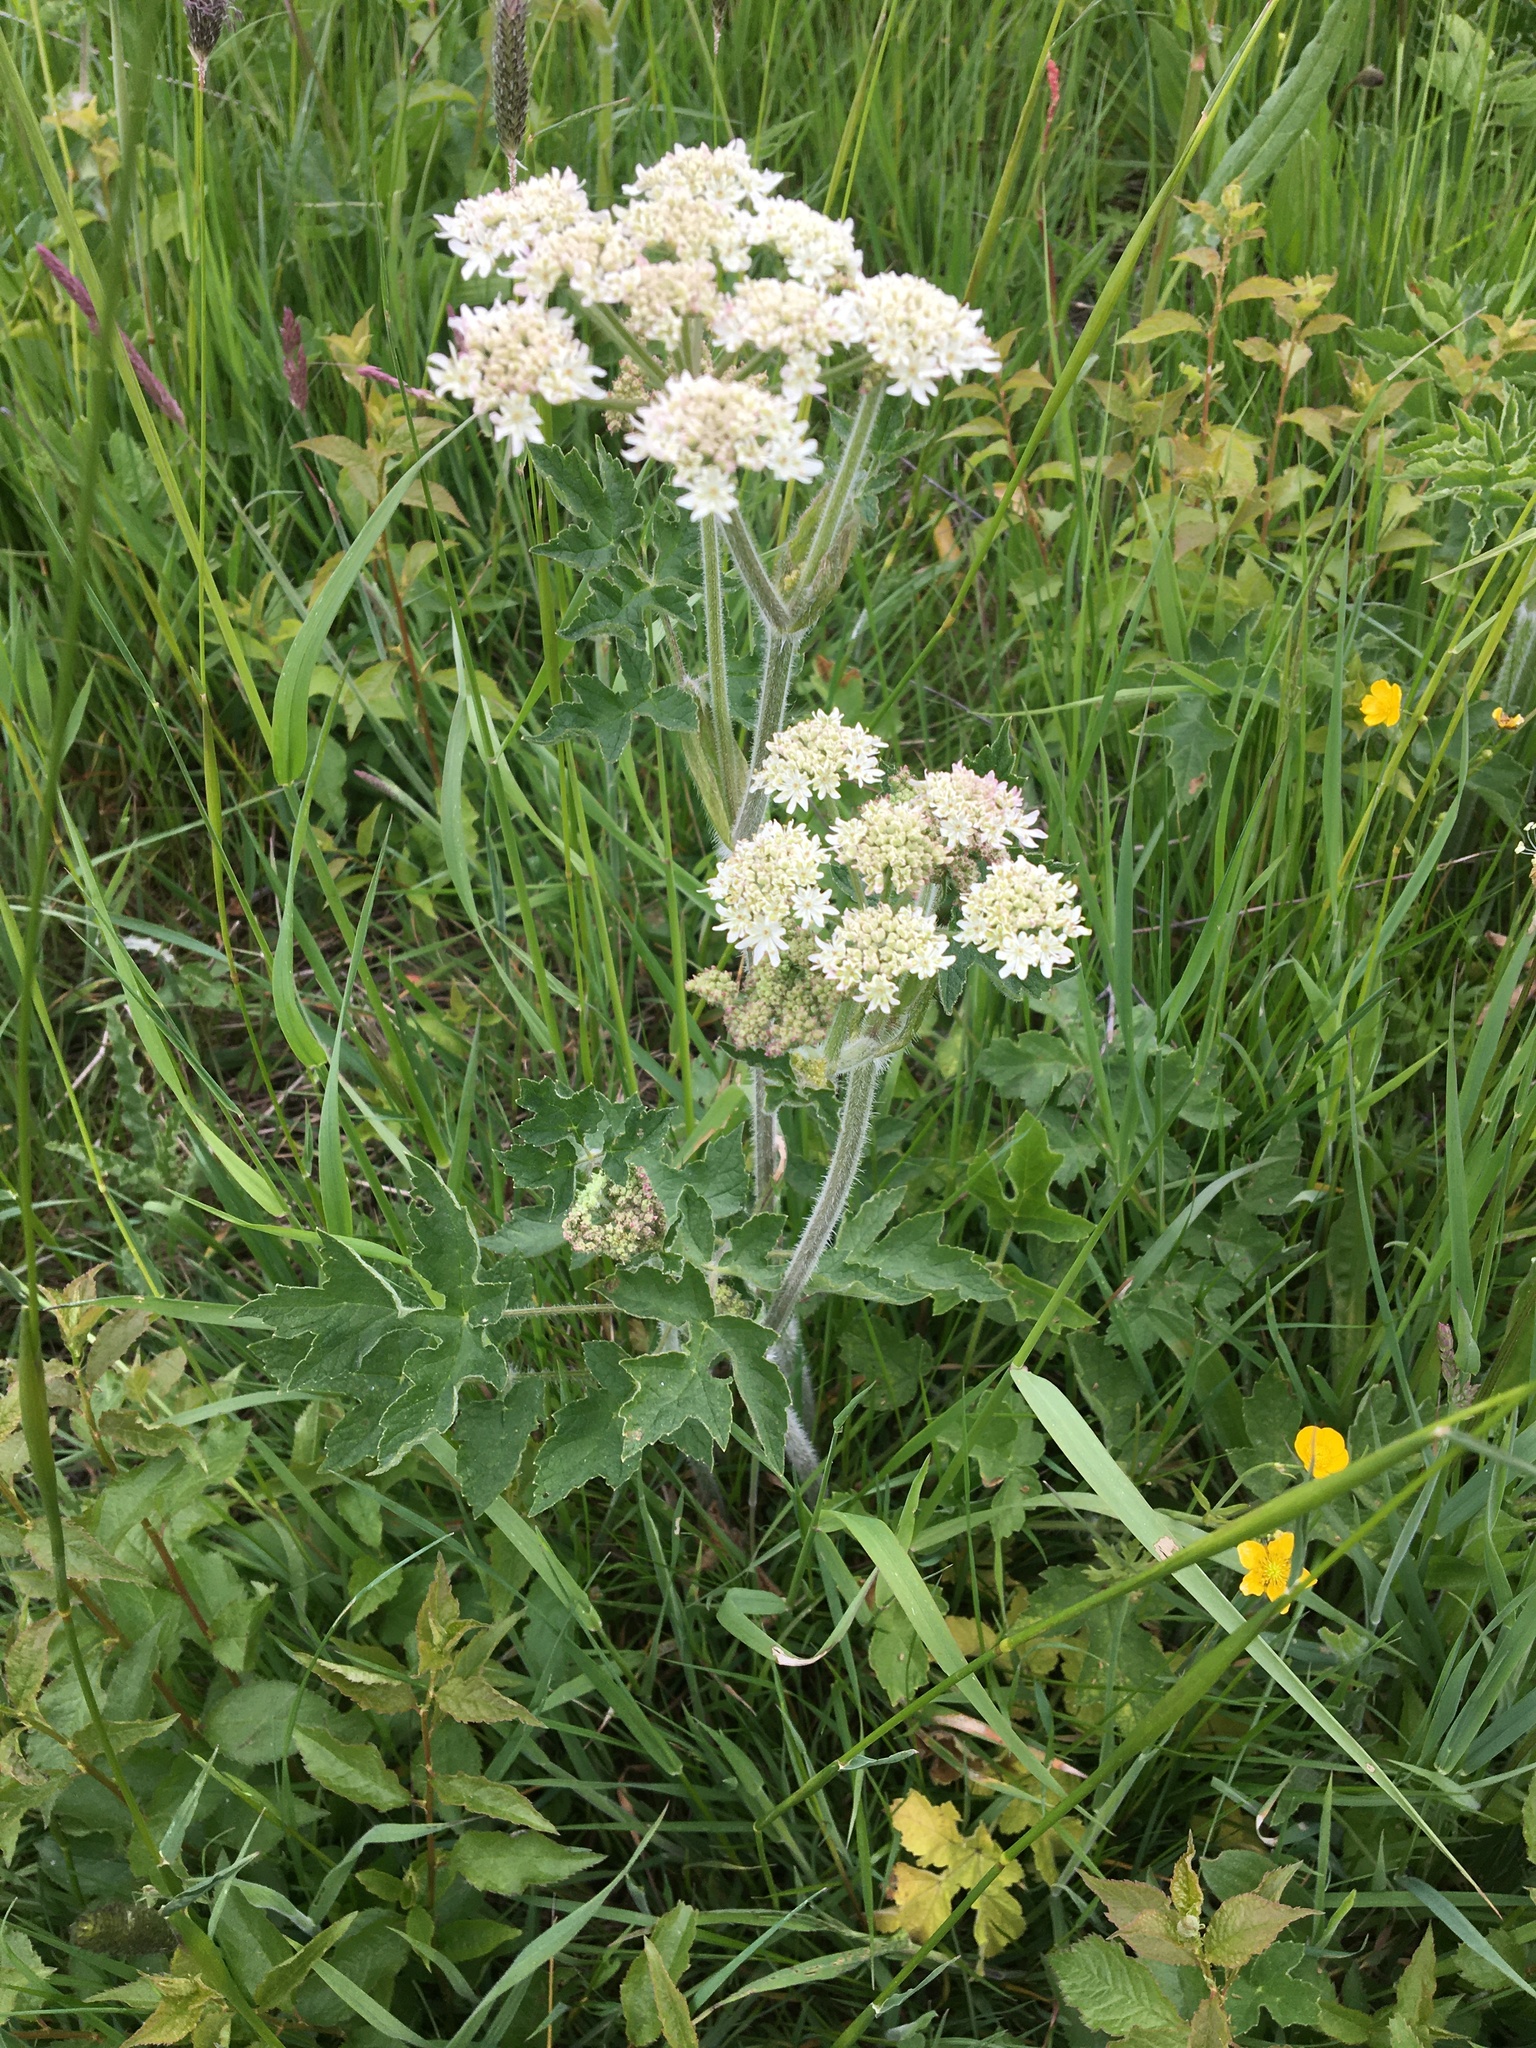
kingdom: Plantae
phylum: Tracheophyta
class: Magnoliopsida
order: Apiales
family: Apiaceae
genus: Heracleum
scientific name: Heracleum sphondylium
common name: Hogweed
